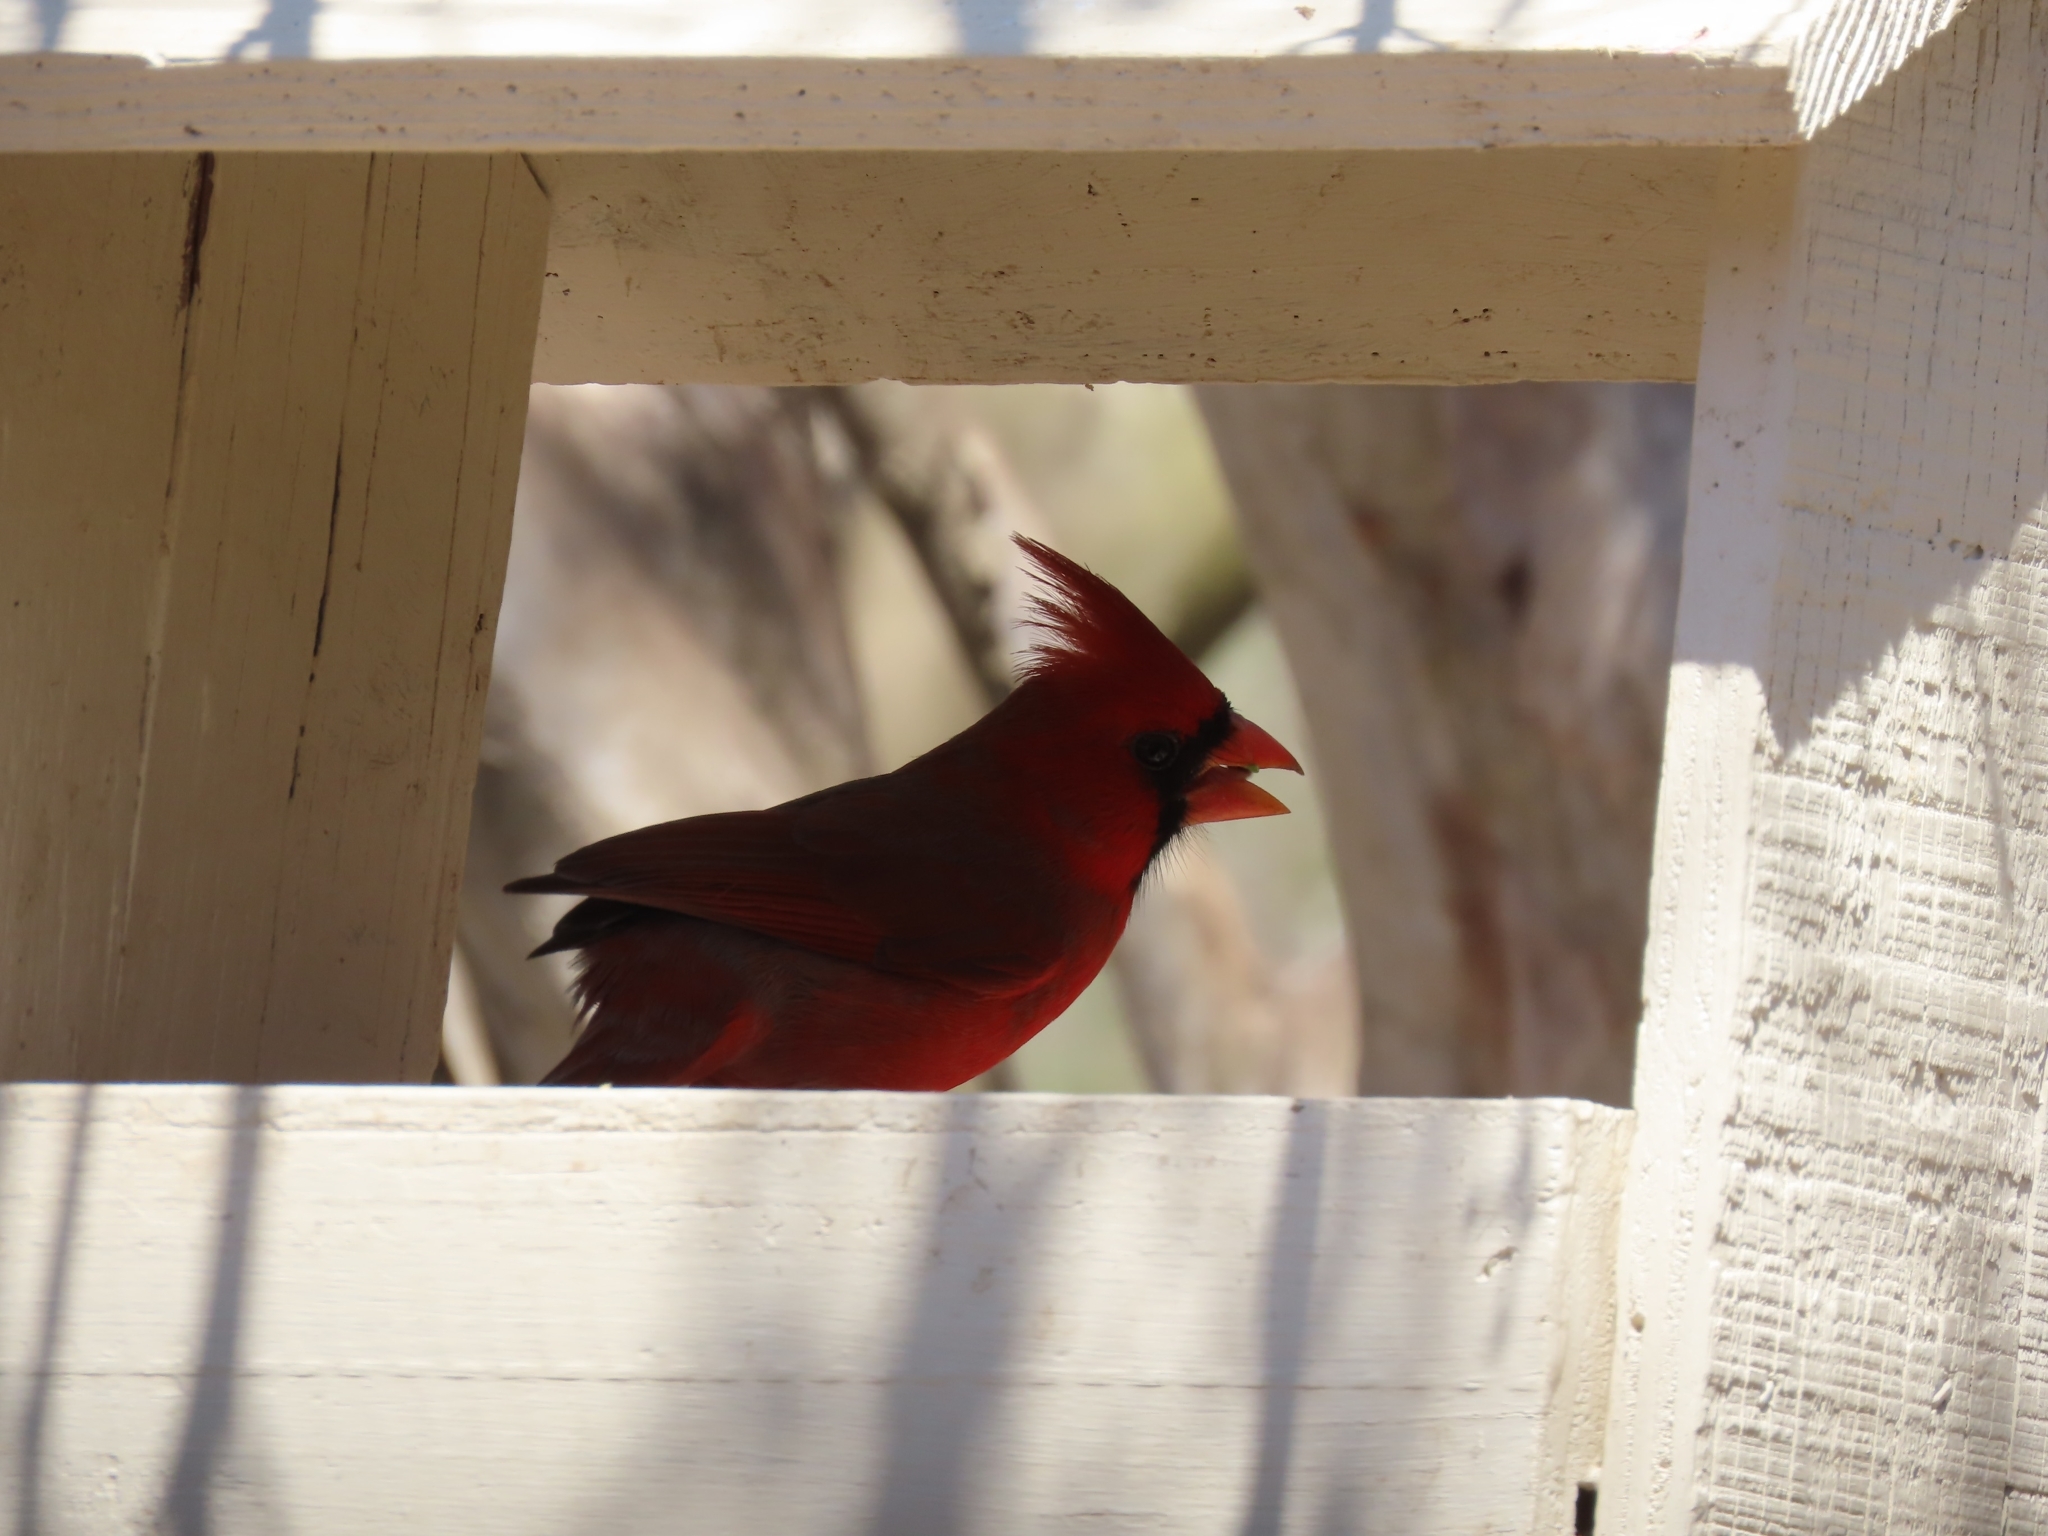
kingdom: Animalia
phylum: Chordata
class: Aves
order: Passeriformes
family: Cardinalidae
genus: Cardinalis
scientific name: Cardinalis cardinalis
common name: Northern cardinal
